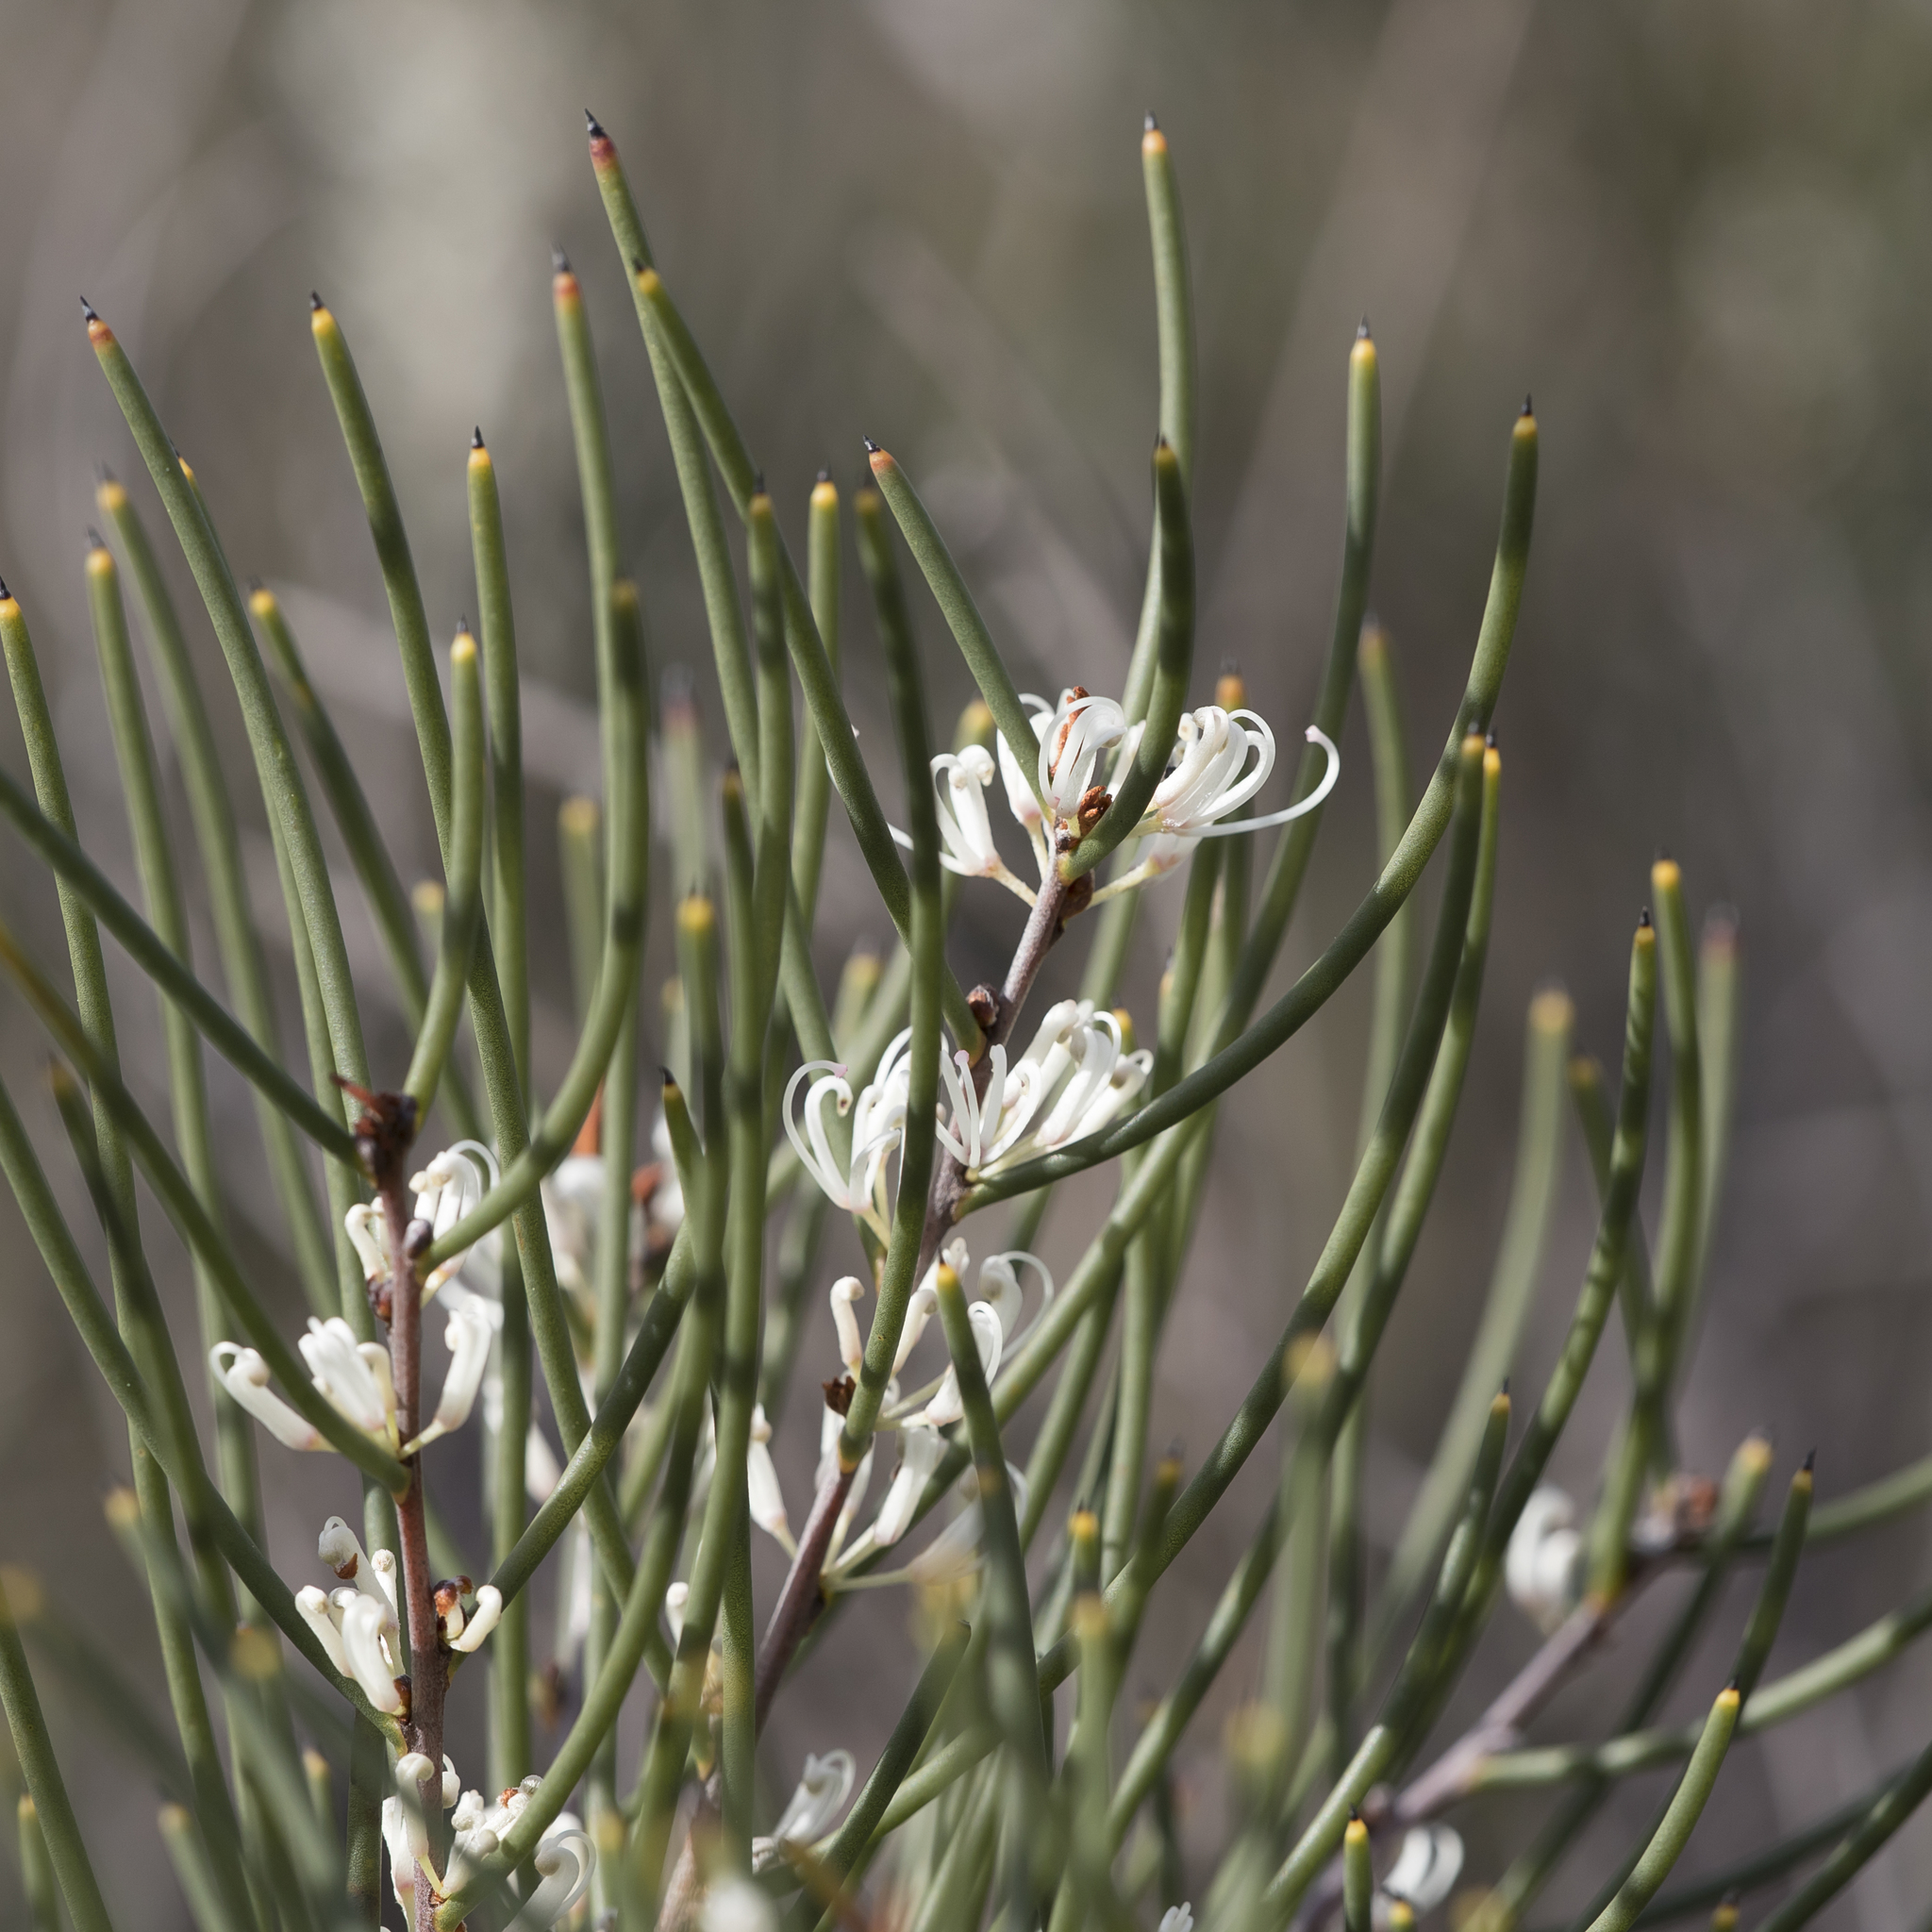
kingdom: Plantae
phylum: Tracheophyta
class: Magnoliopsida
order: Proteales
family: Proteaceae
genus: Hakea
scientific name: Hakea rostrata
